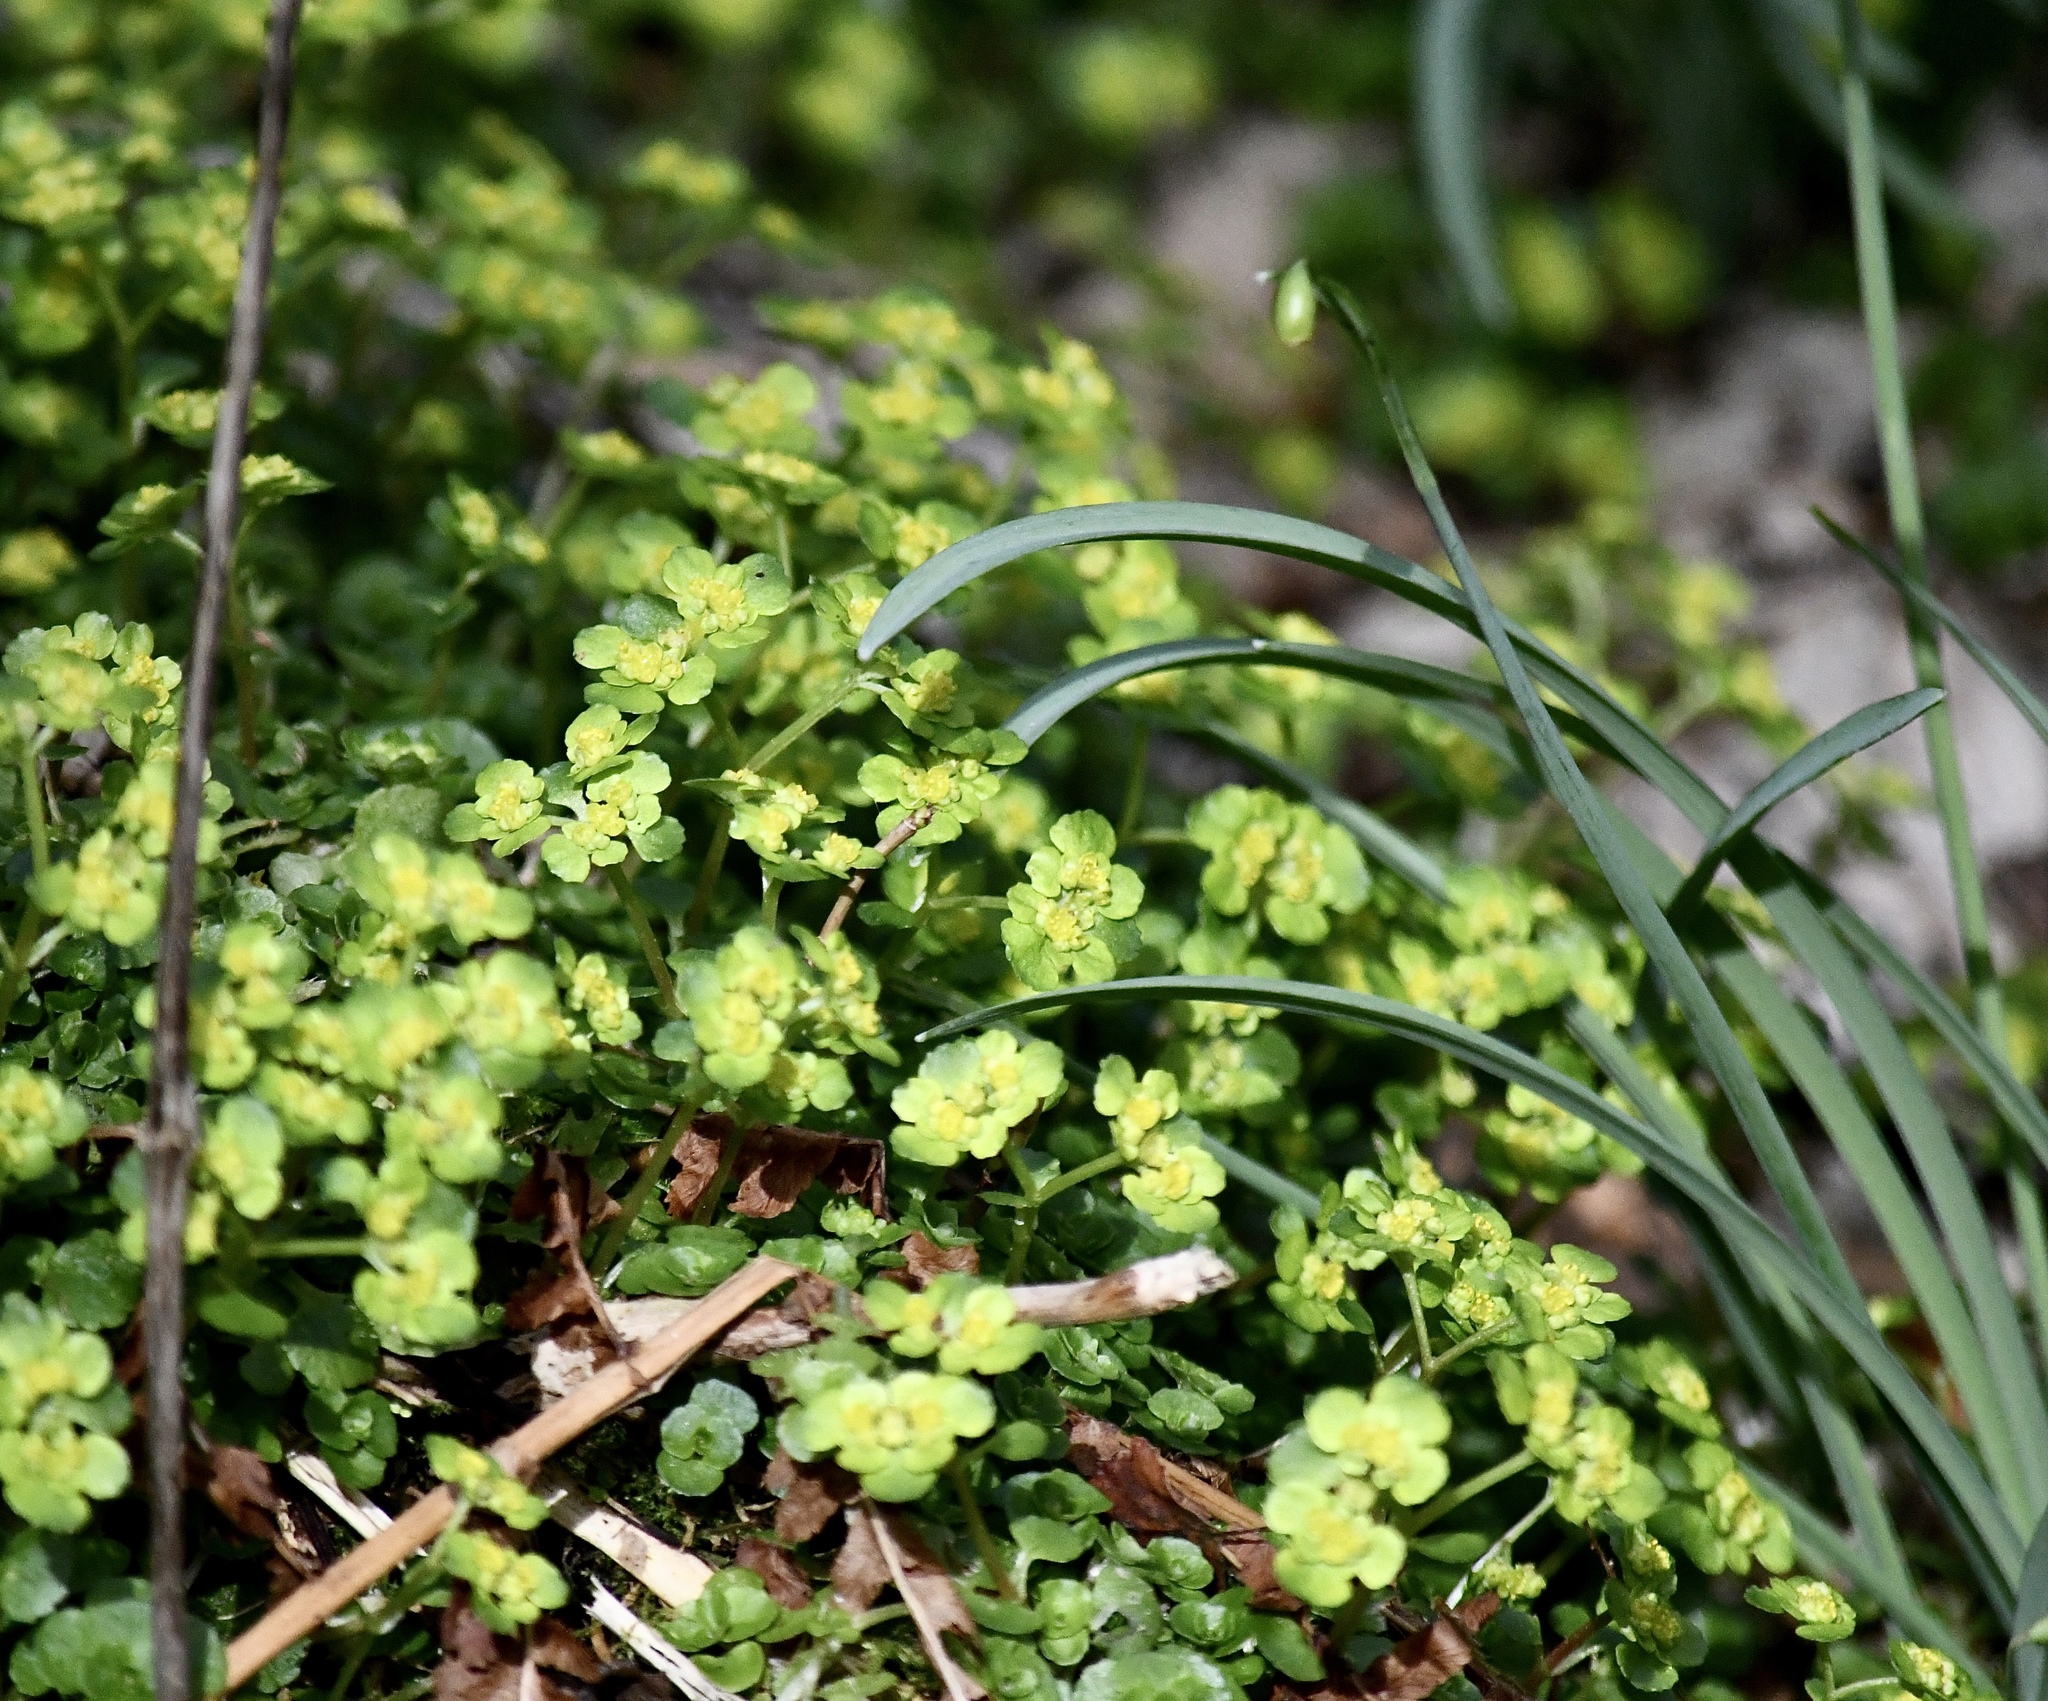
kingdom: Plantae
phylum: Tracheophyta
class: Magnoliopsida
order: Saxifragales
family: Saxifragaceae
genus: Chrysosplenium
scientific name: Chrysosplenium oppositifolium
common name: Opposite-leaved golden-saxifrage
